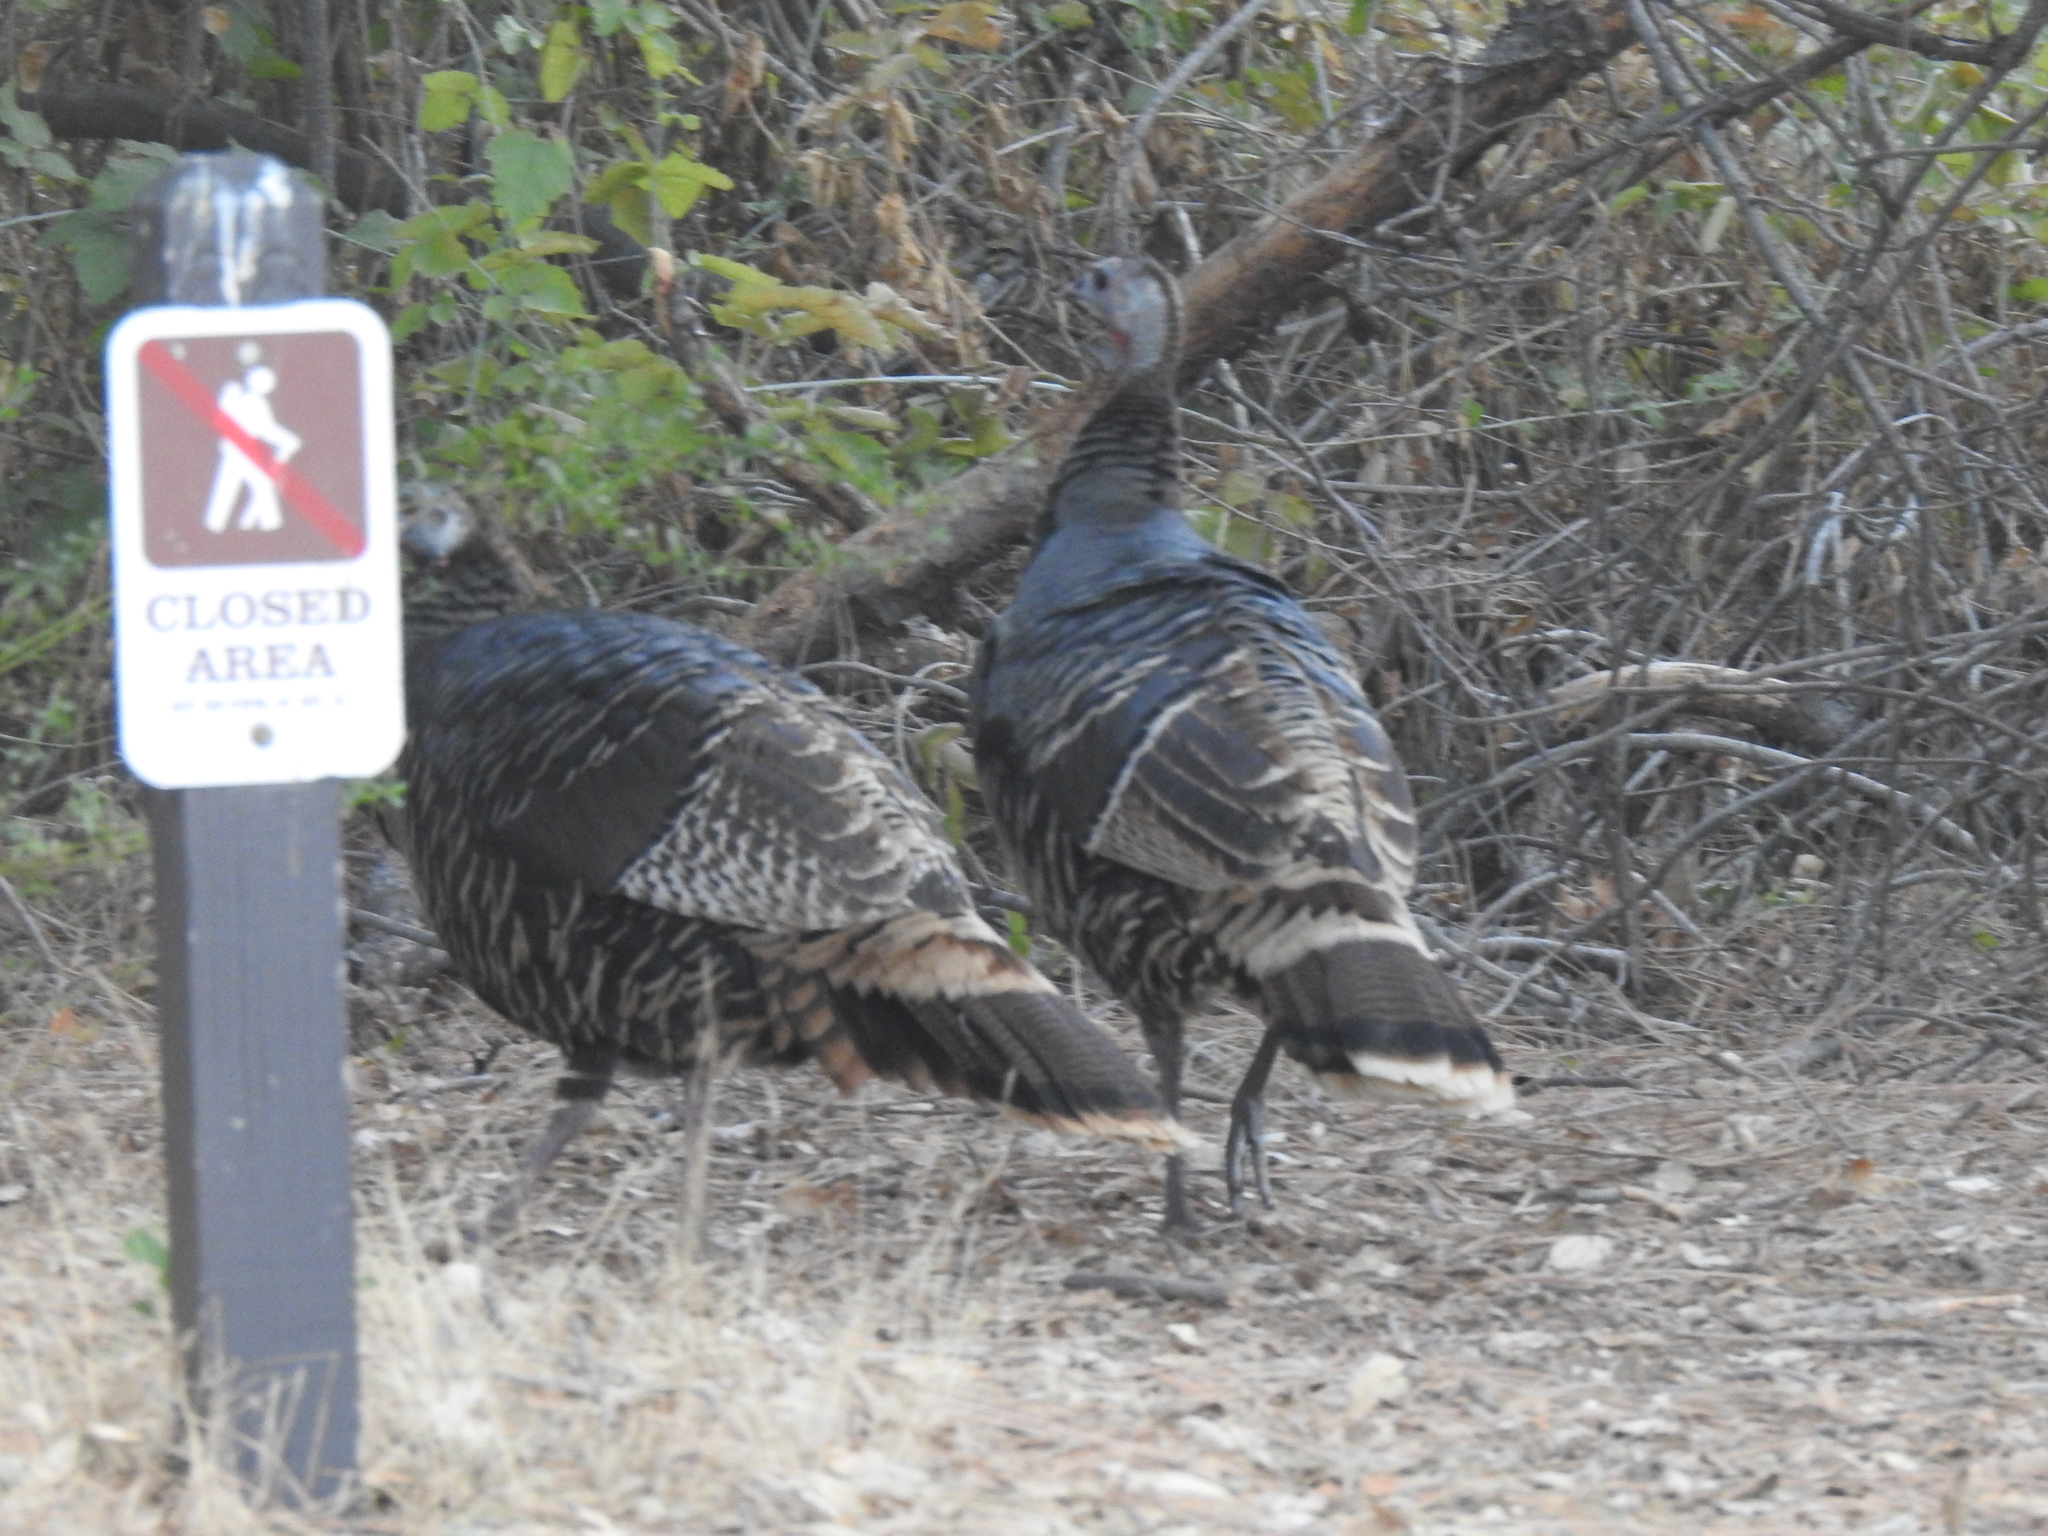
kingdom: Animalia
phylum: Chordata
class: Aves
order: Galliformes
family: Phasianidae
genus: Meleagris
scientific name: Meleagris gallopavo
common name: Wild turkey
